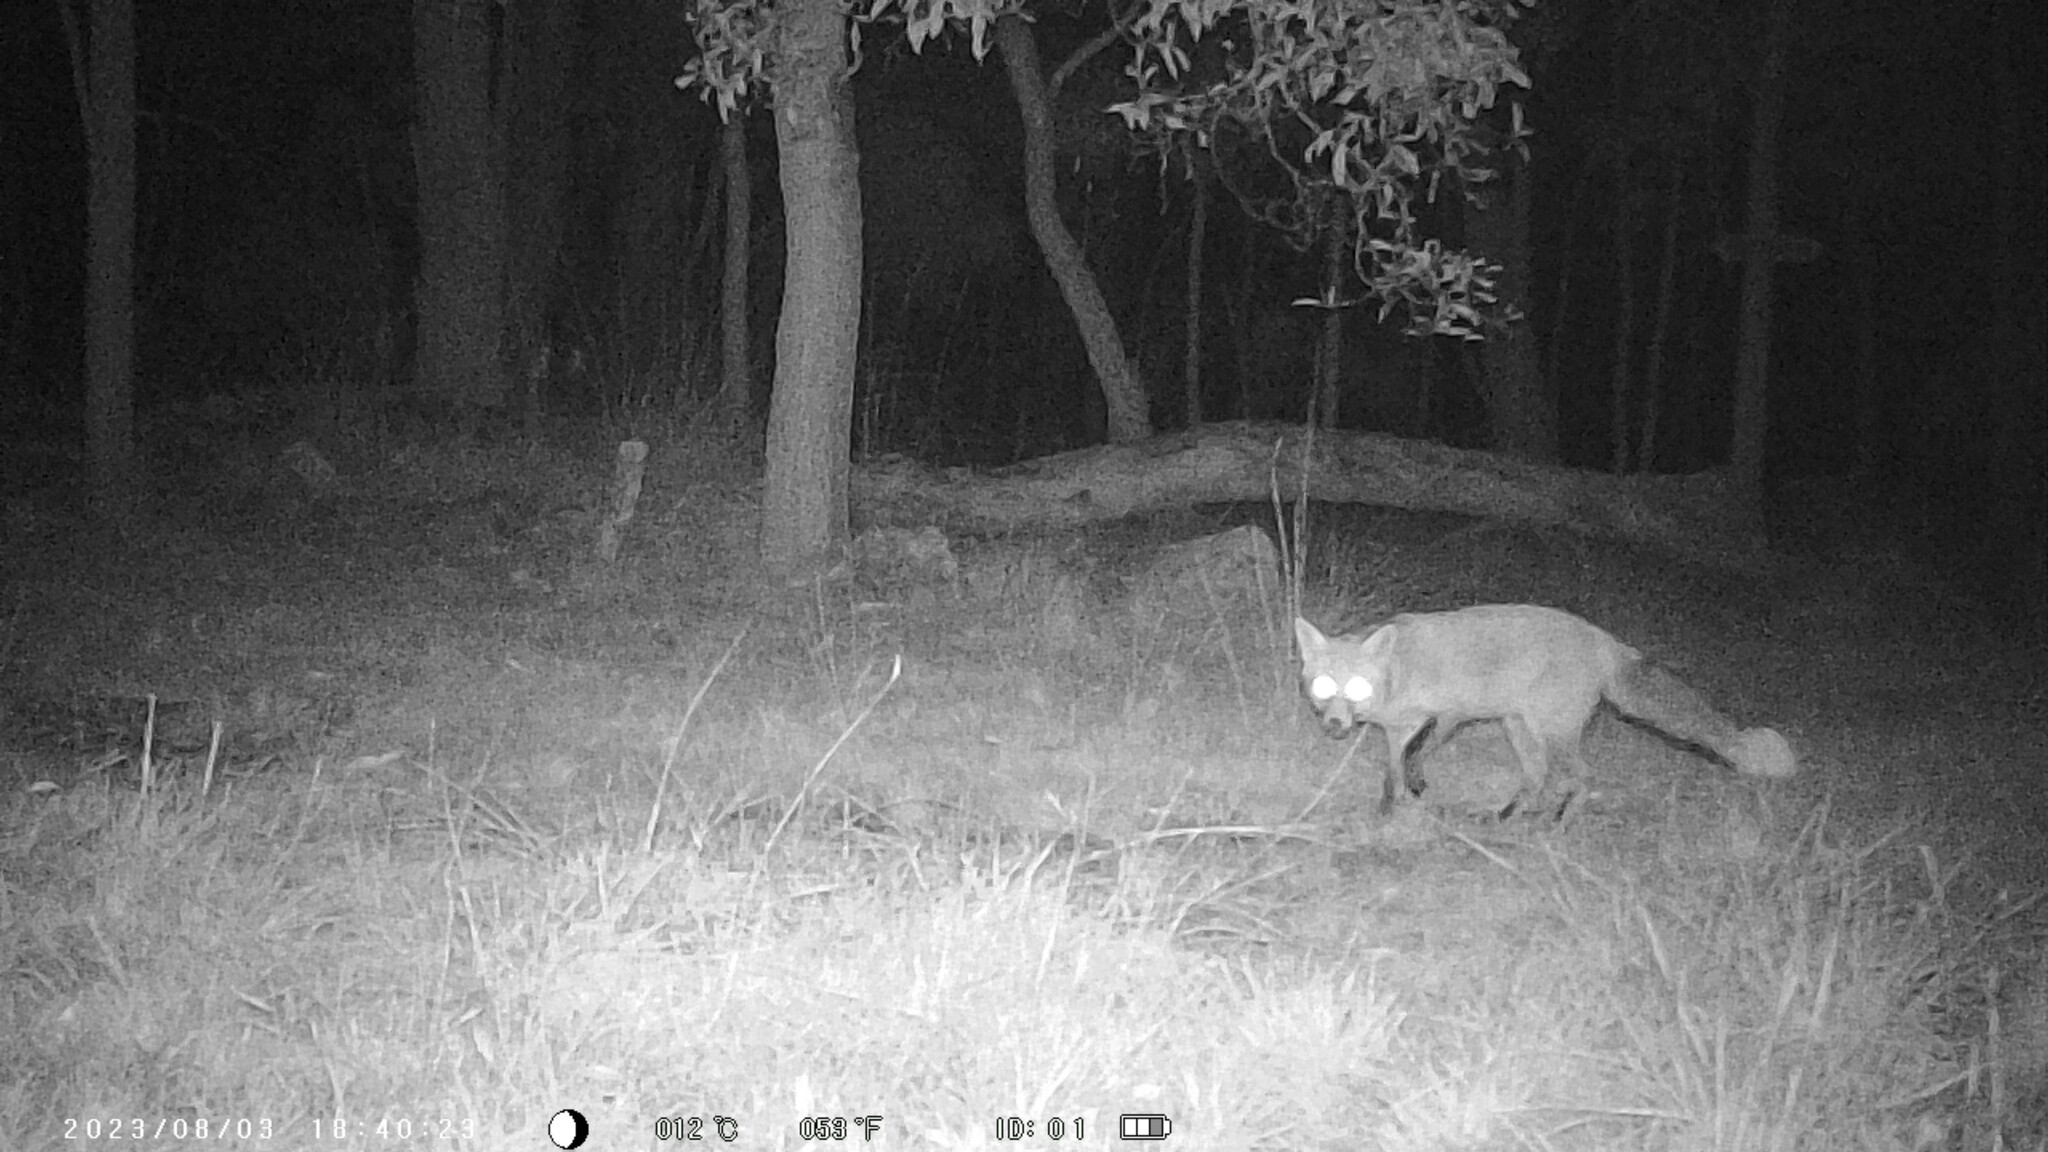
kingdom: Animalia
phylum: Chordata
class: Mammalia
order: Carnivora
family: Canidae
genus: Vulpes
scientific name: Vulpes vulpes
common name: Red fox
